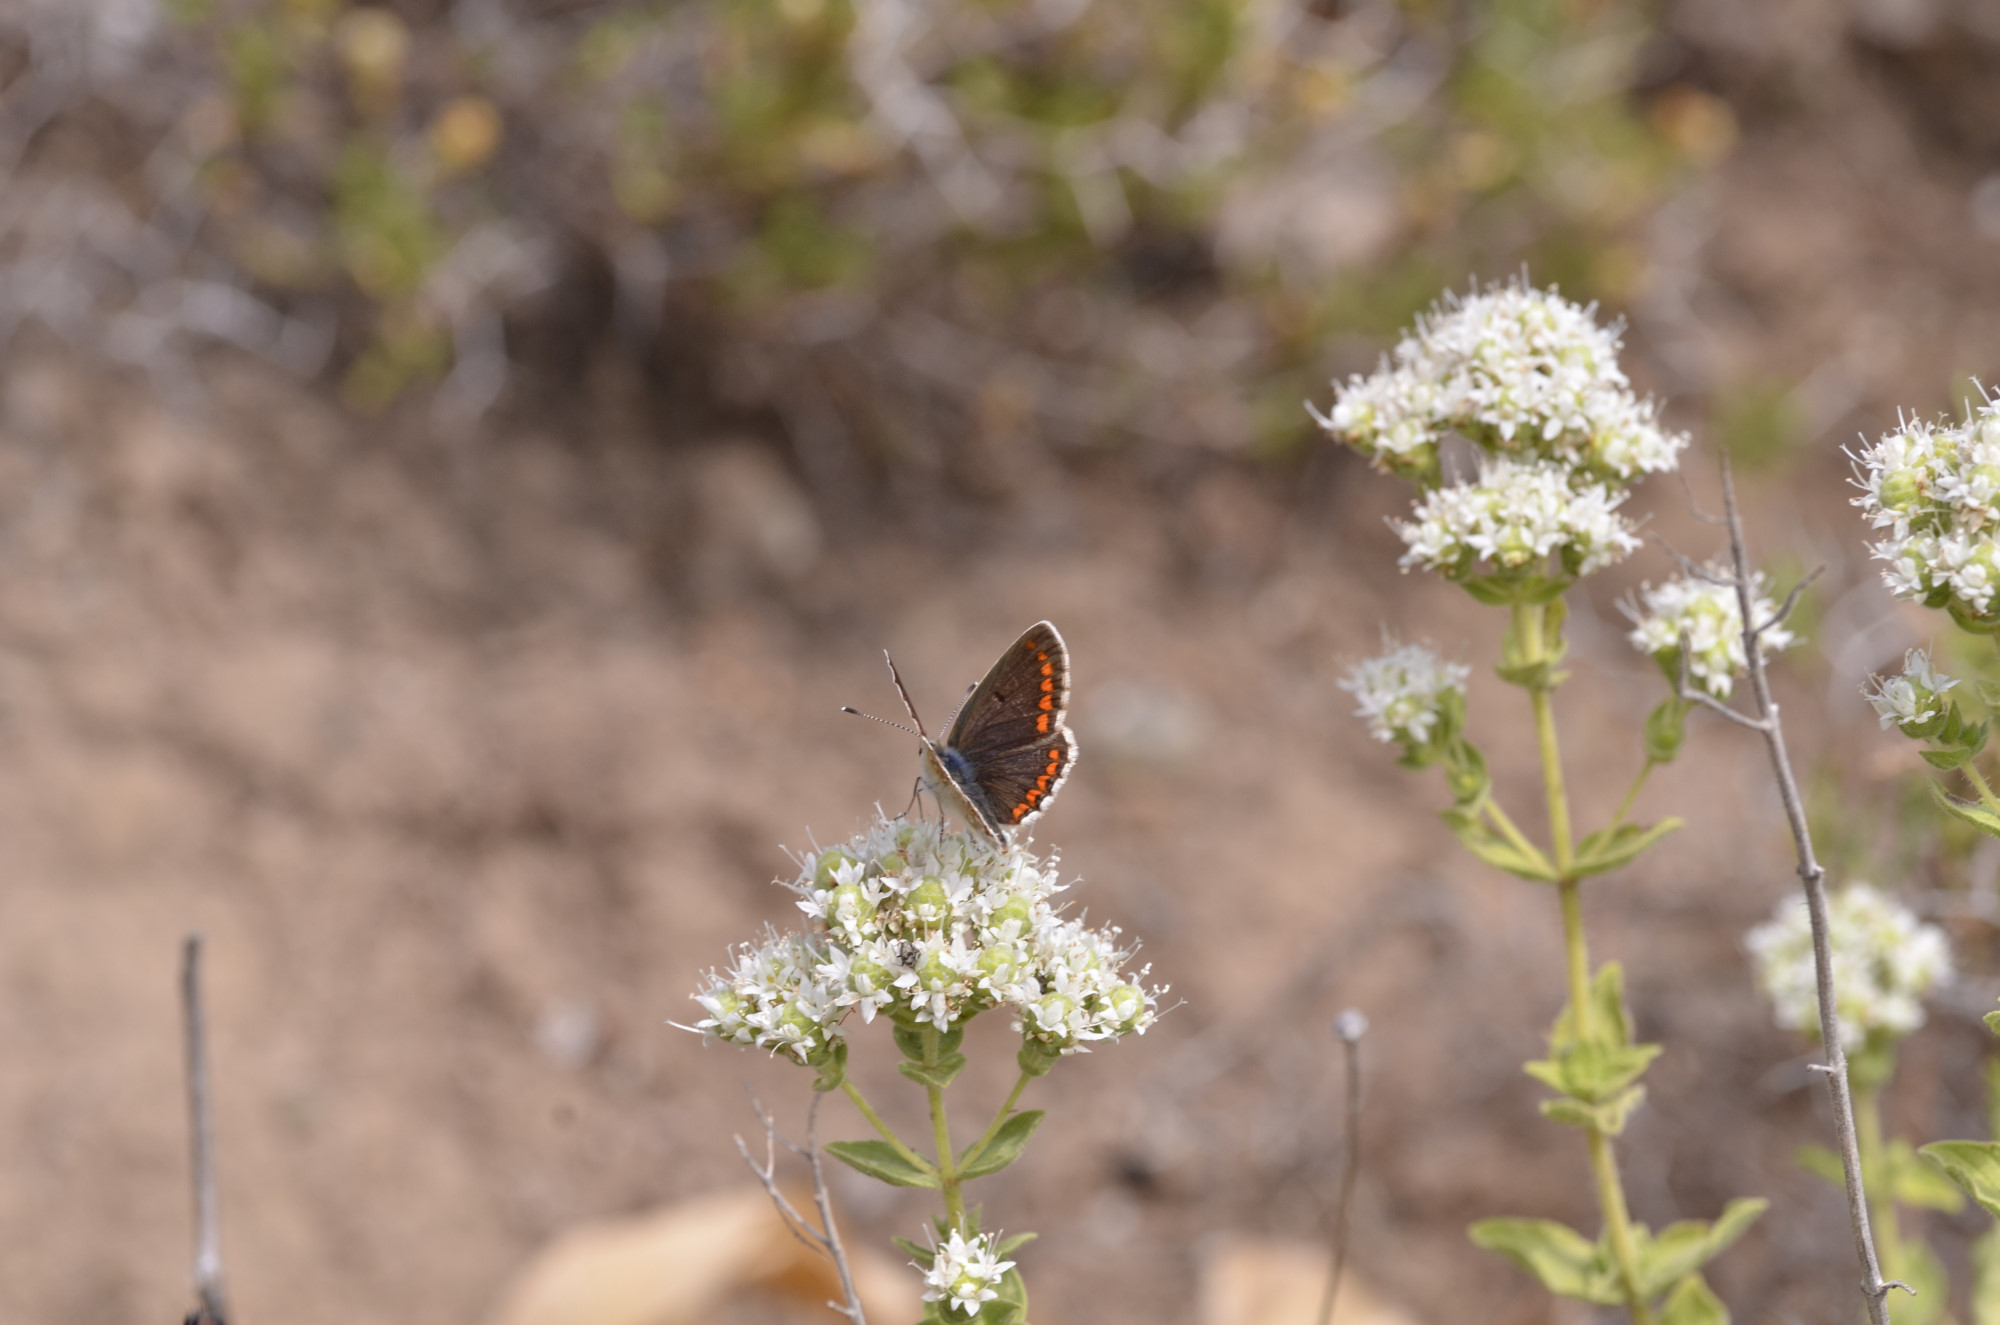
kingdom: Animalia
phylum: Arthropoda
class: Insecta
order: Lepidoptera
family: Lycaenidae
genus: Aricia
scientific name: Aricia agestis
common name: Brown argus
